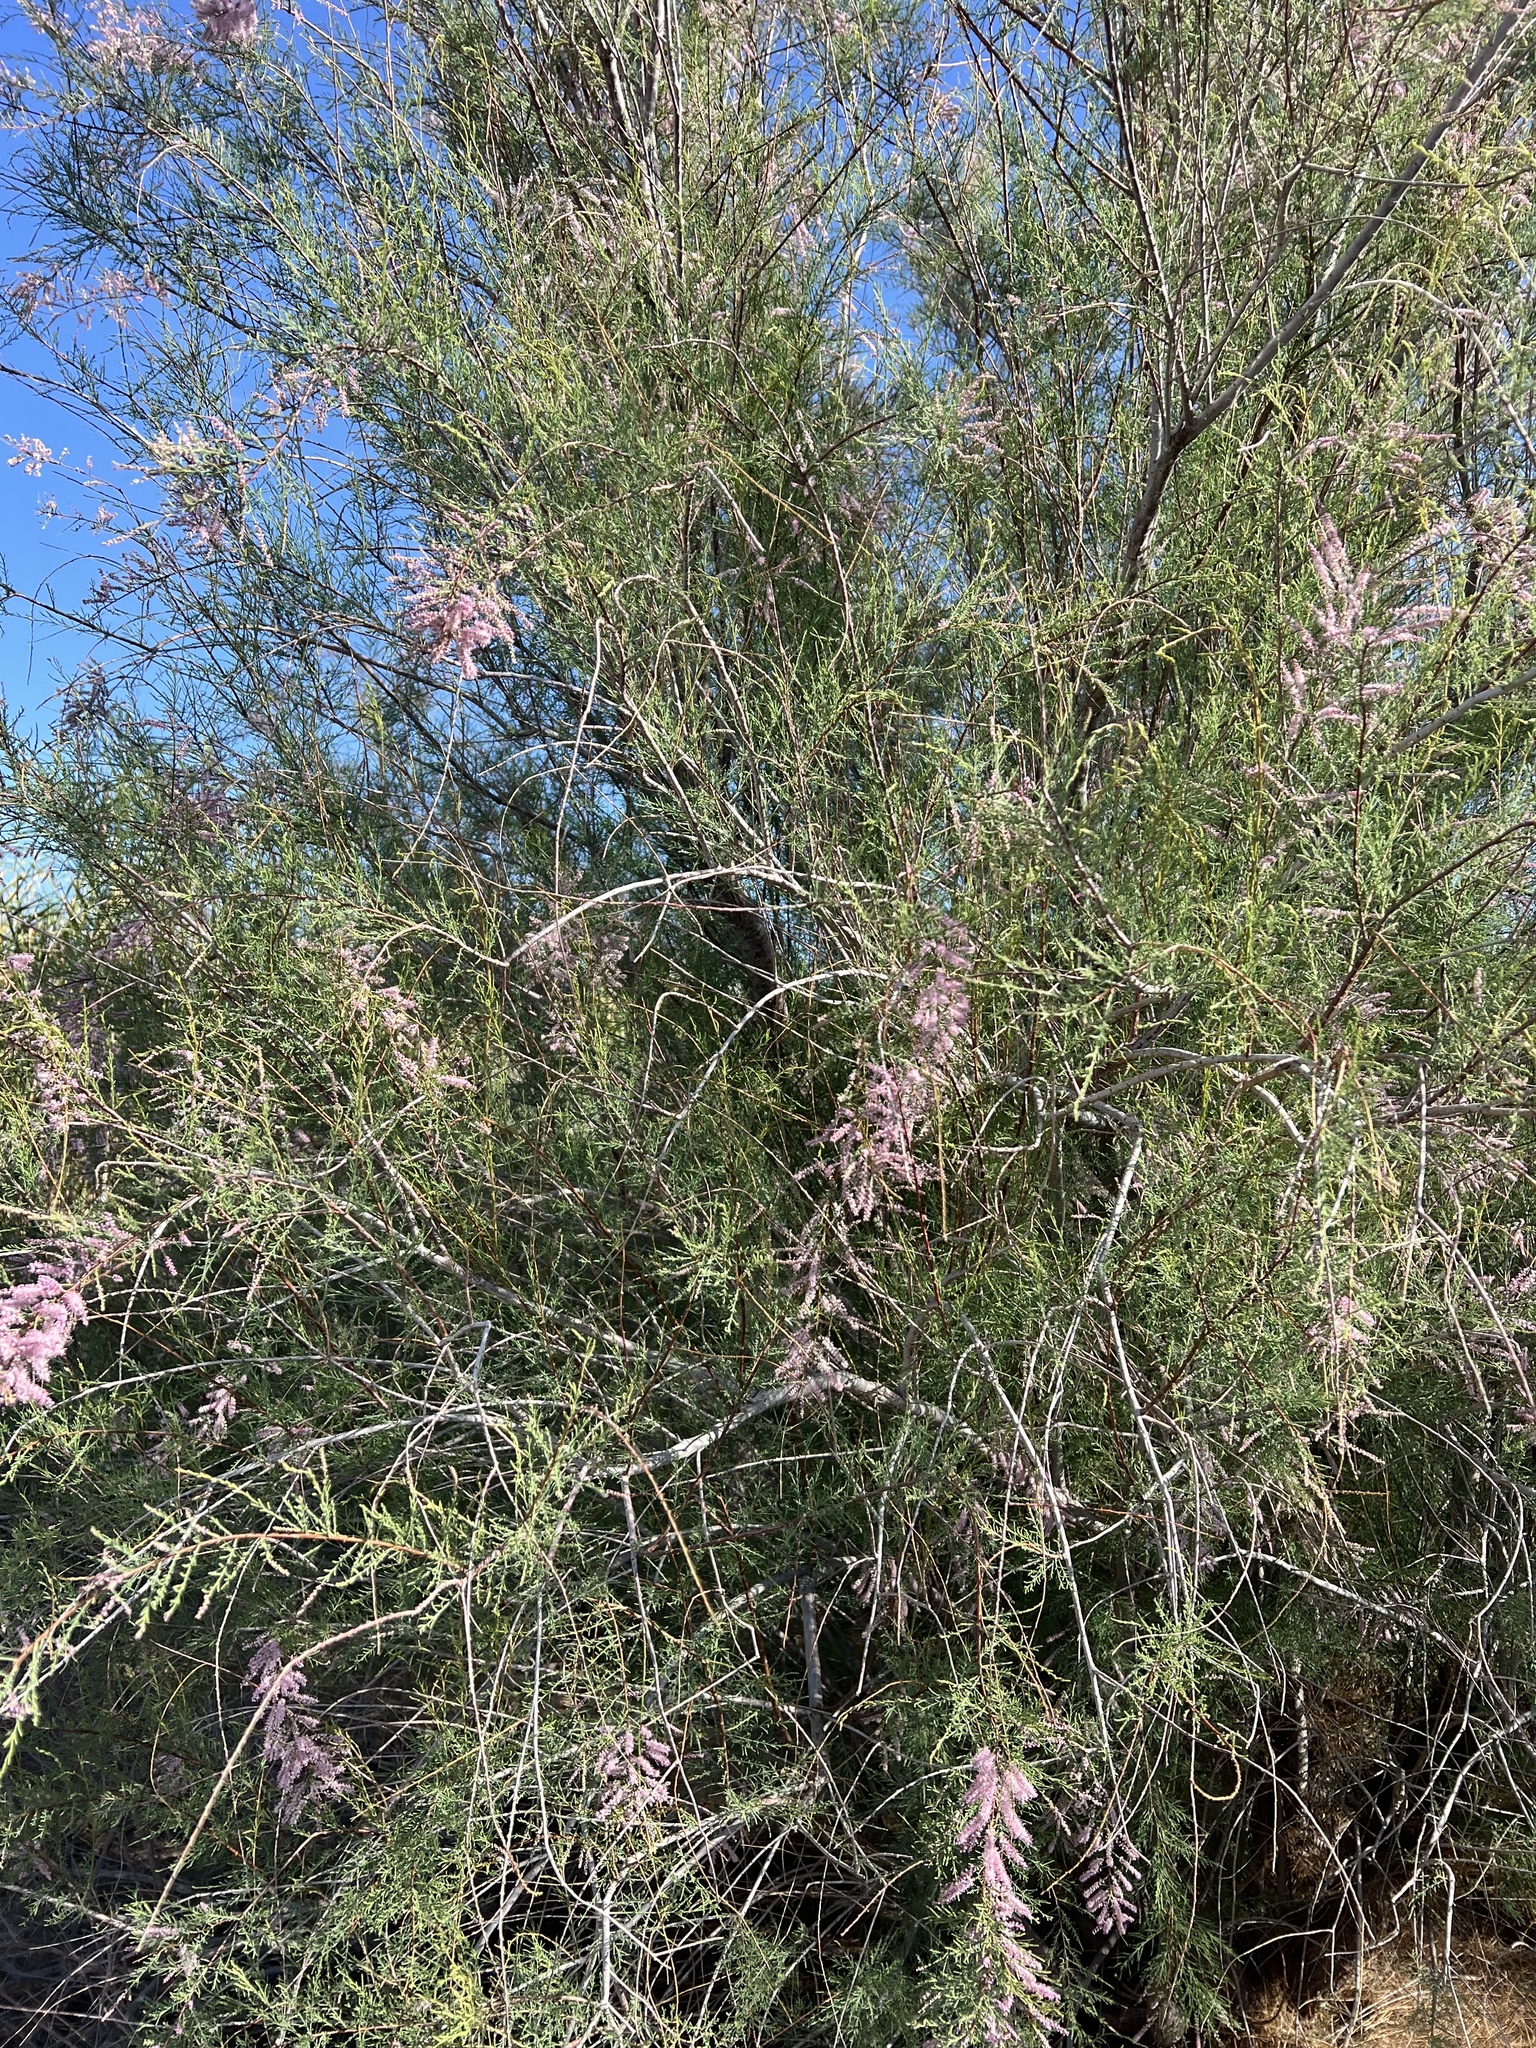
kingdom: Plantae
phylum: Tracheophyta
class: Magnoliopsida
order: Caryophyllales
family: Tamaricaceae
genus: Tamarix
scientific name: Tamarix
